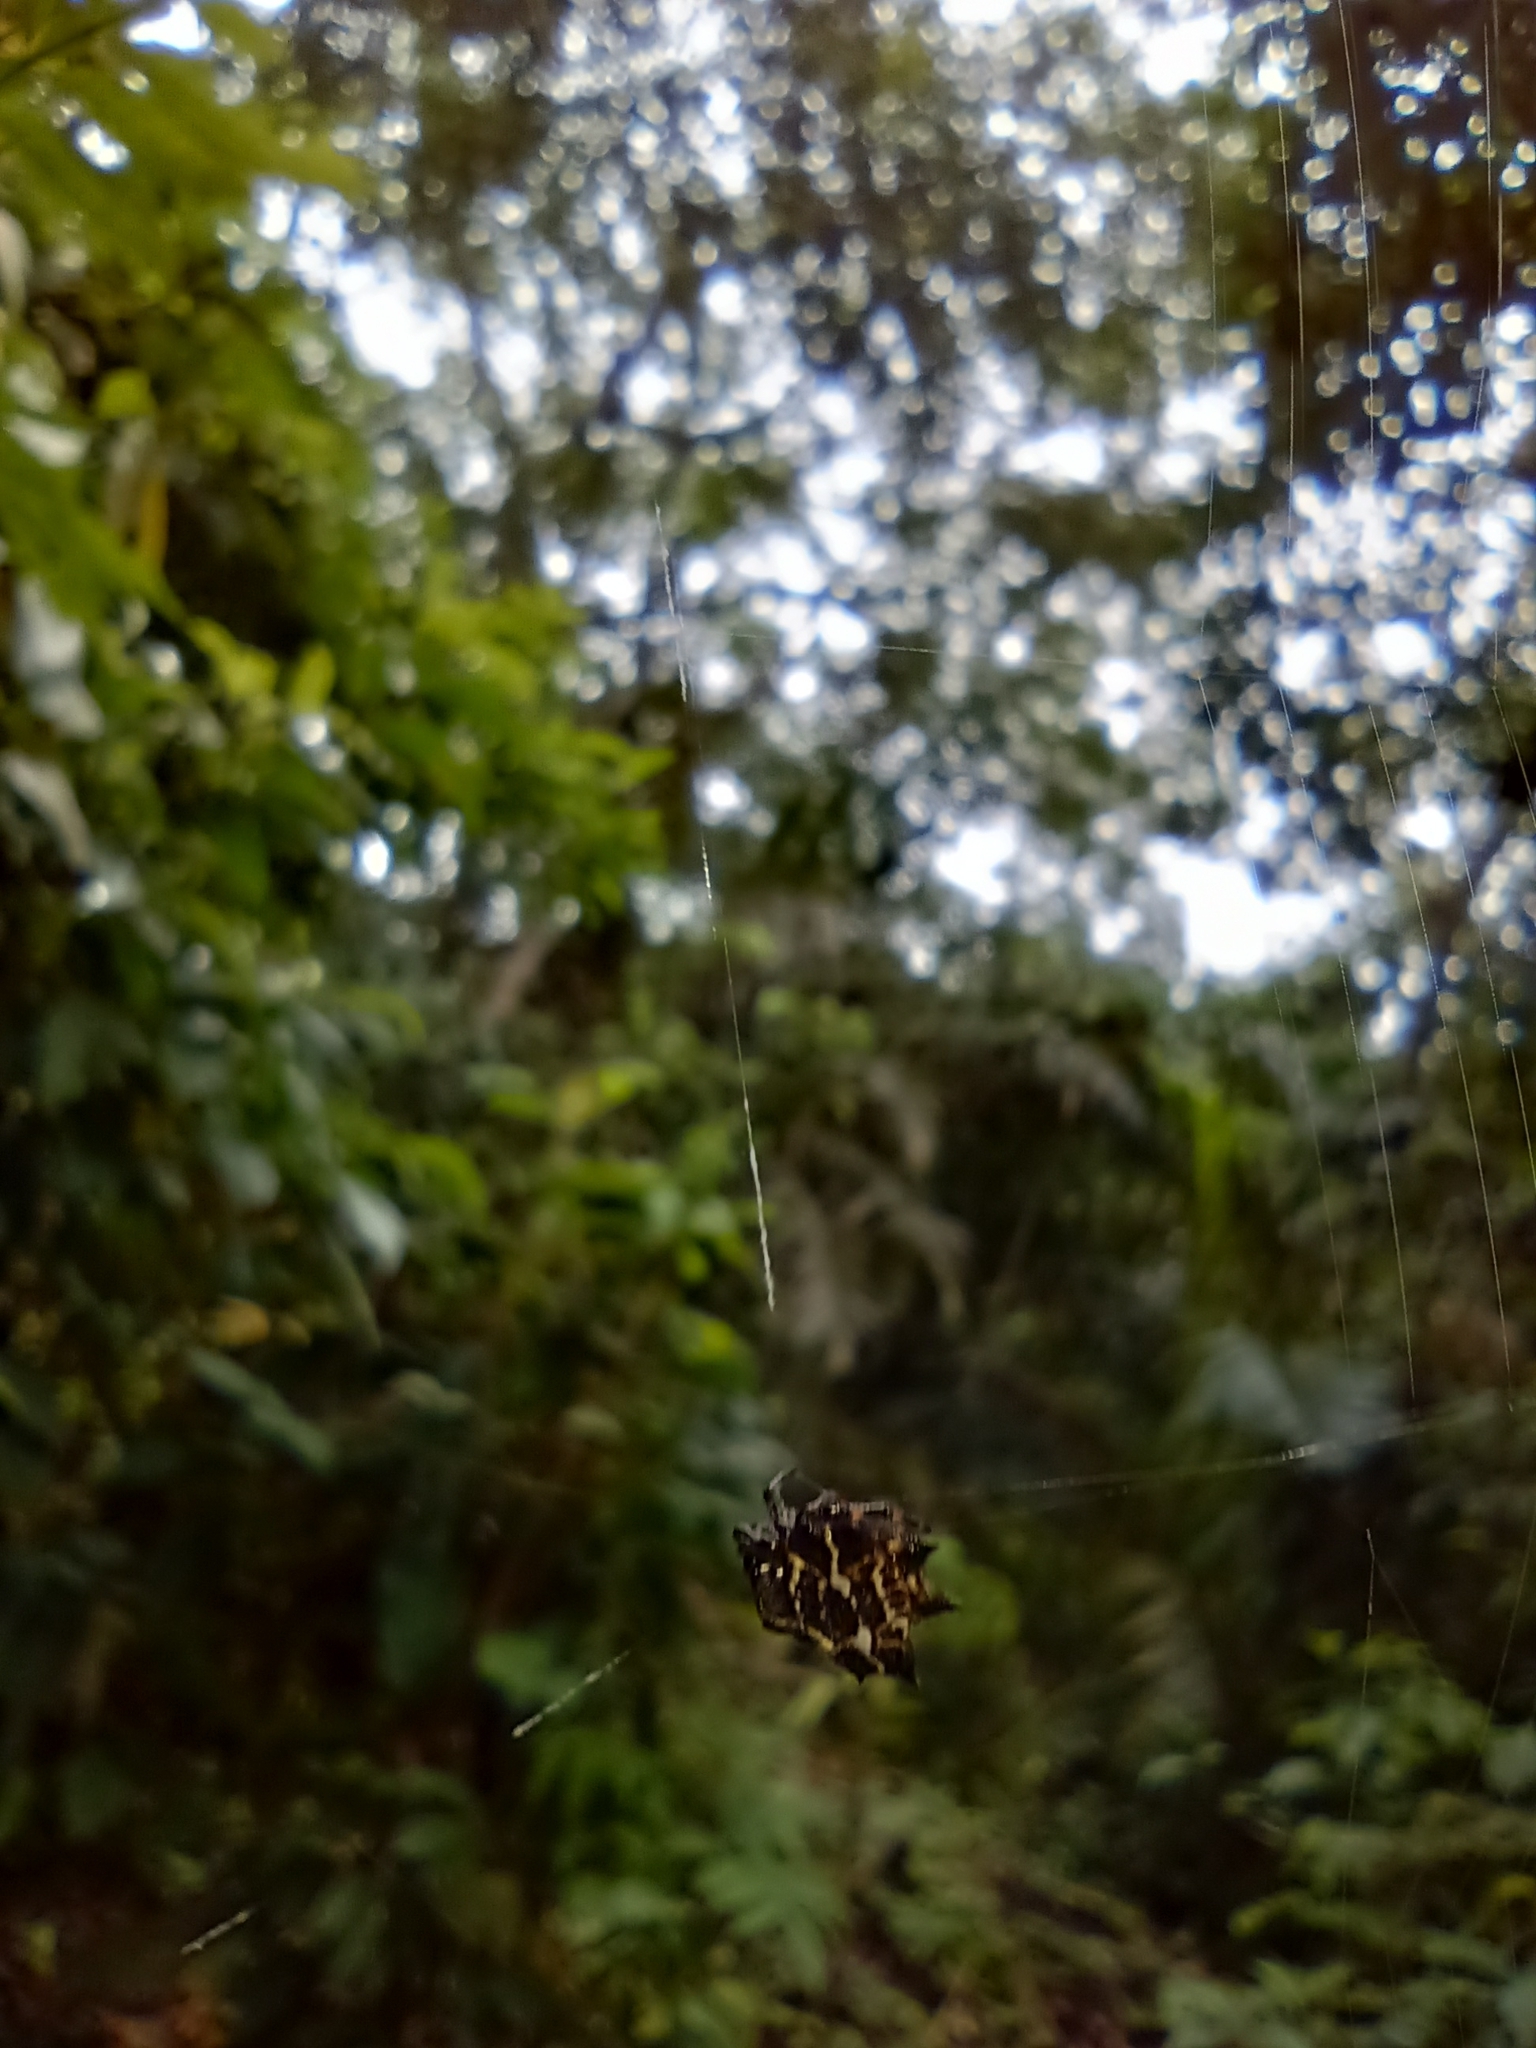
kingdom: Animalia
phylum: Arthropoda
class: Arachnida
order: Araneae
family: Araneidae
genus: Gasteracantha
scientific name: Gasteracantha cancriformis
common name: Orb weavers
